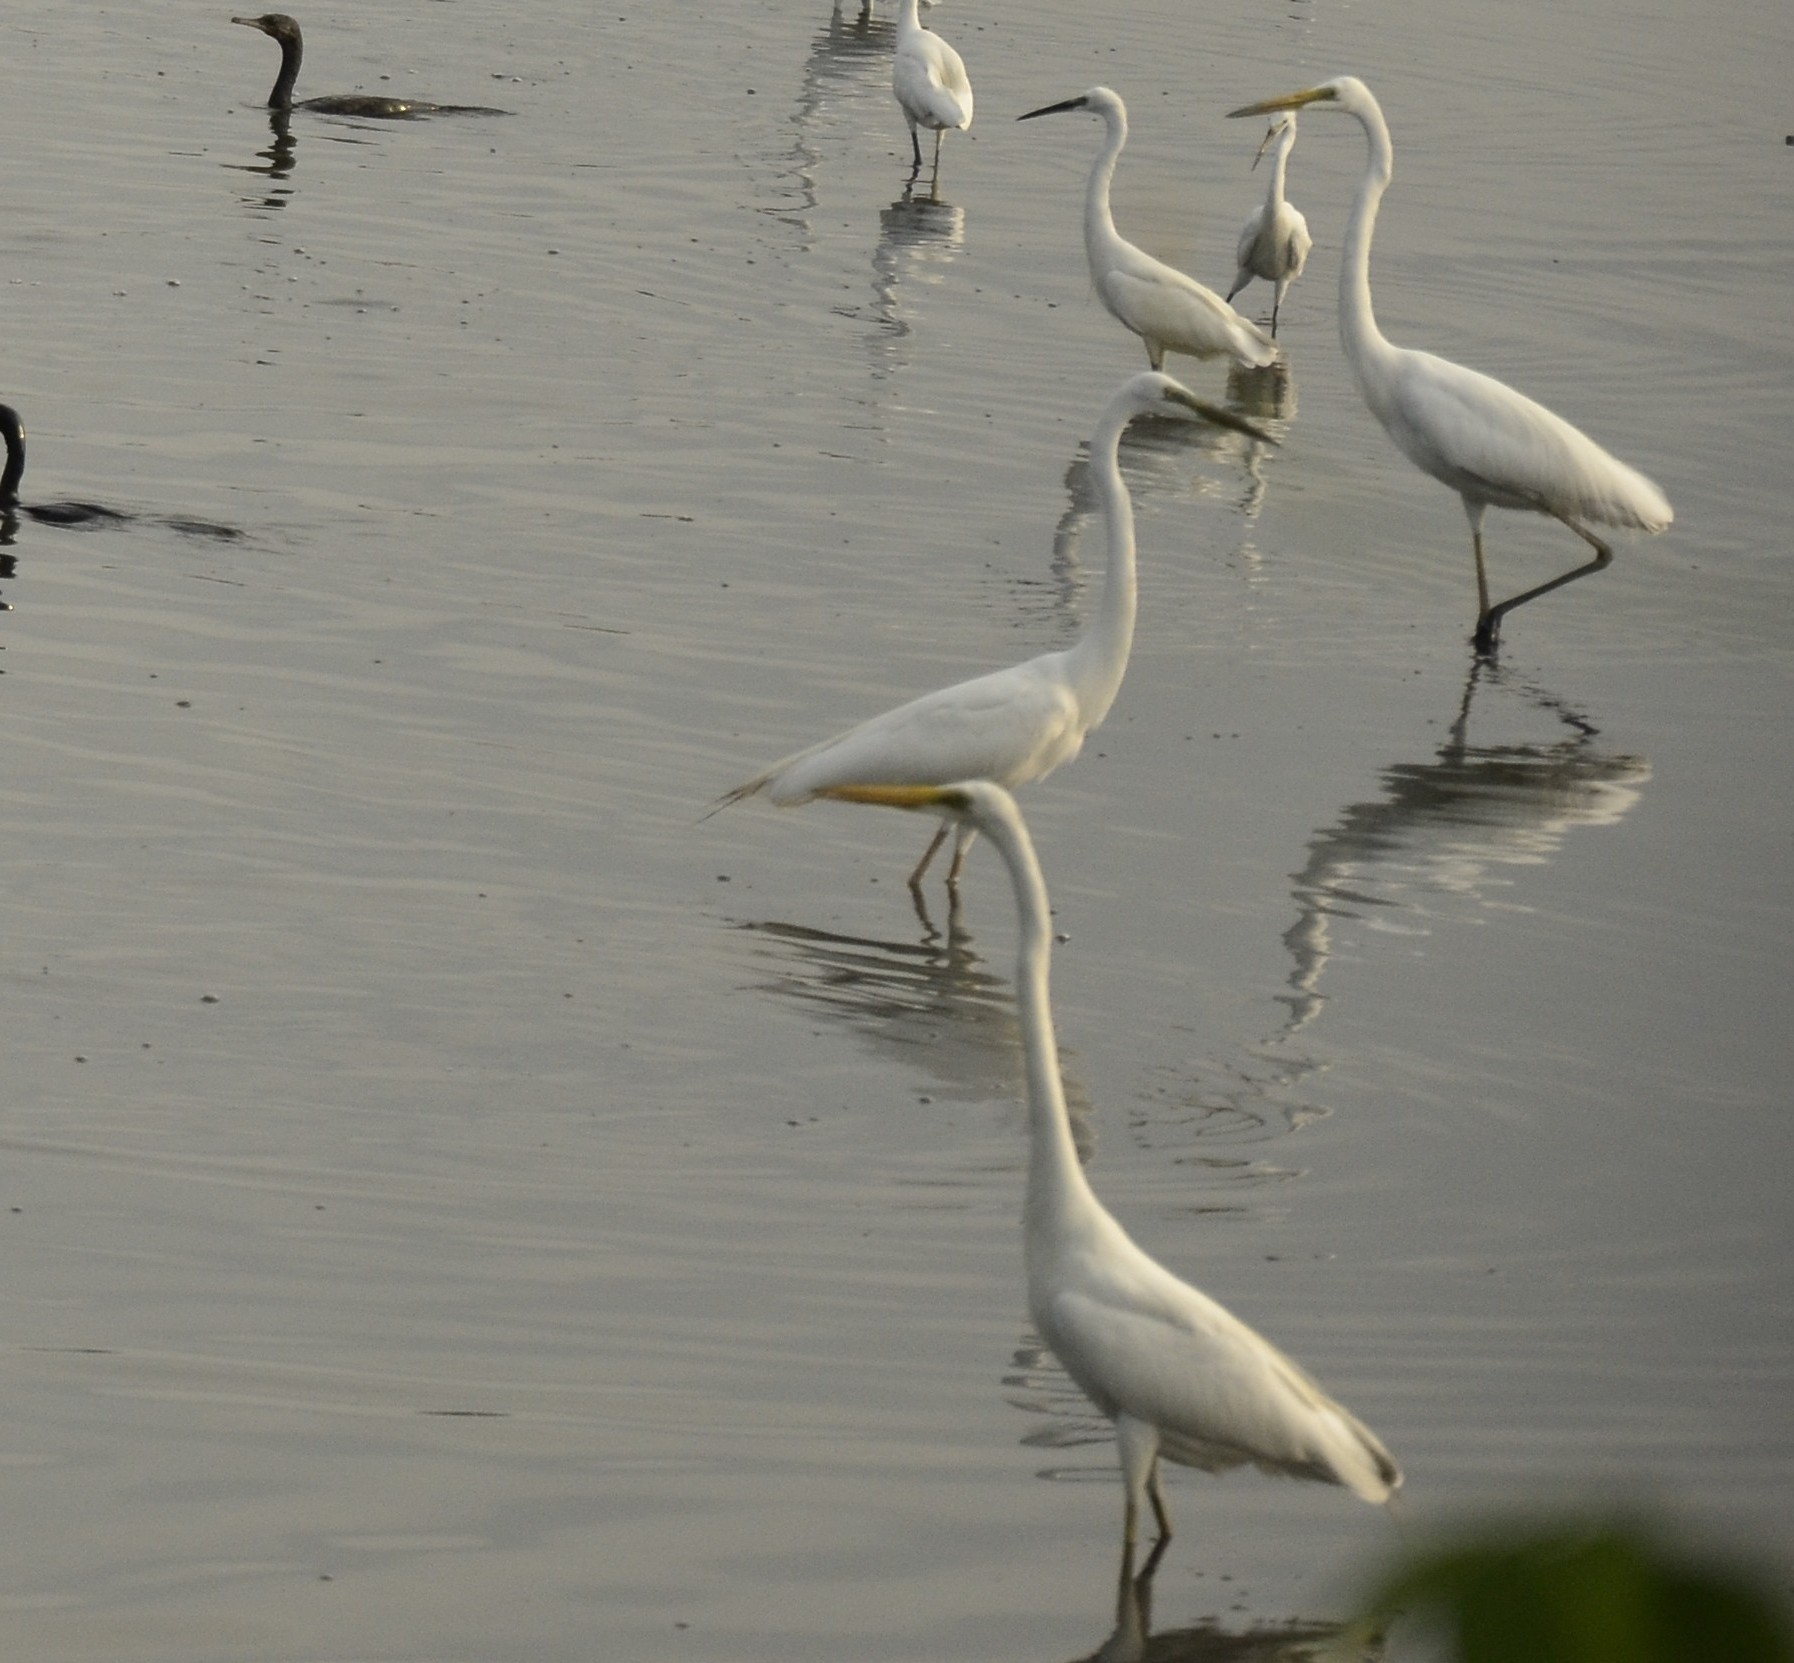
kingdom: Animalia
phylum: Chordata
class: Aves
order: Pelecaniformes
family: Ardeidae
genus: Ardea
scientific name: Ardea alba
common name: Great egret
